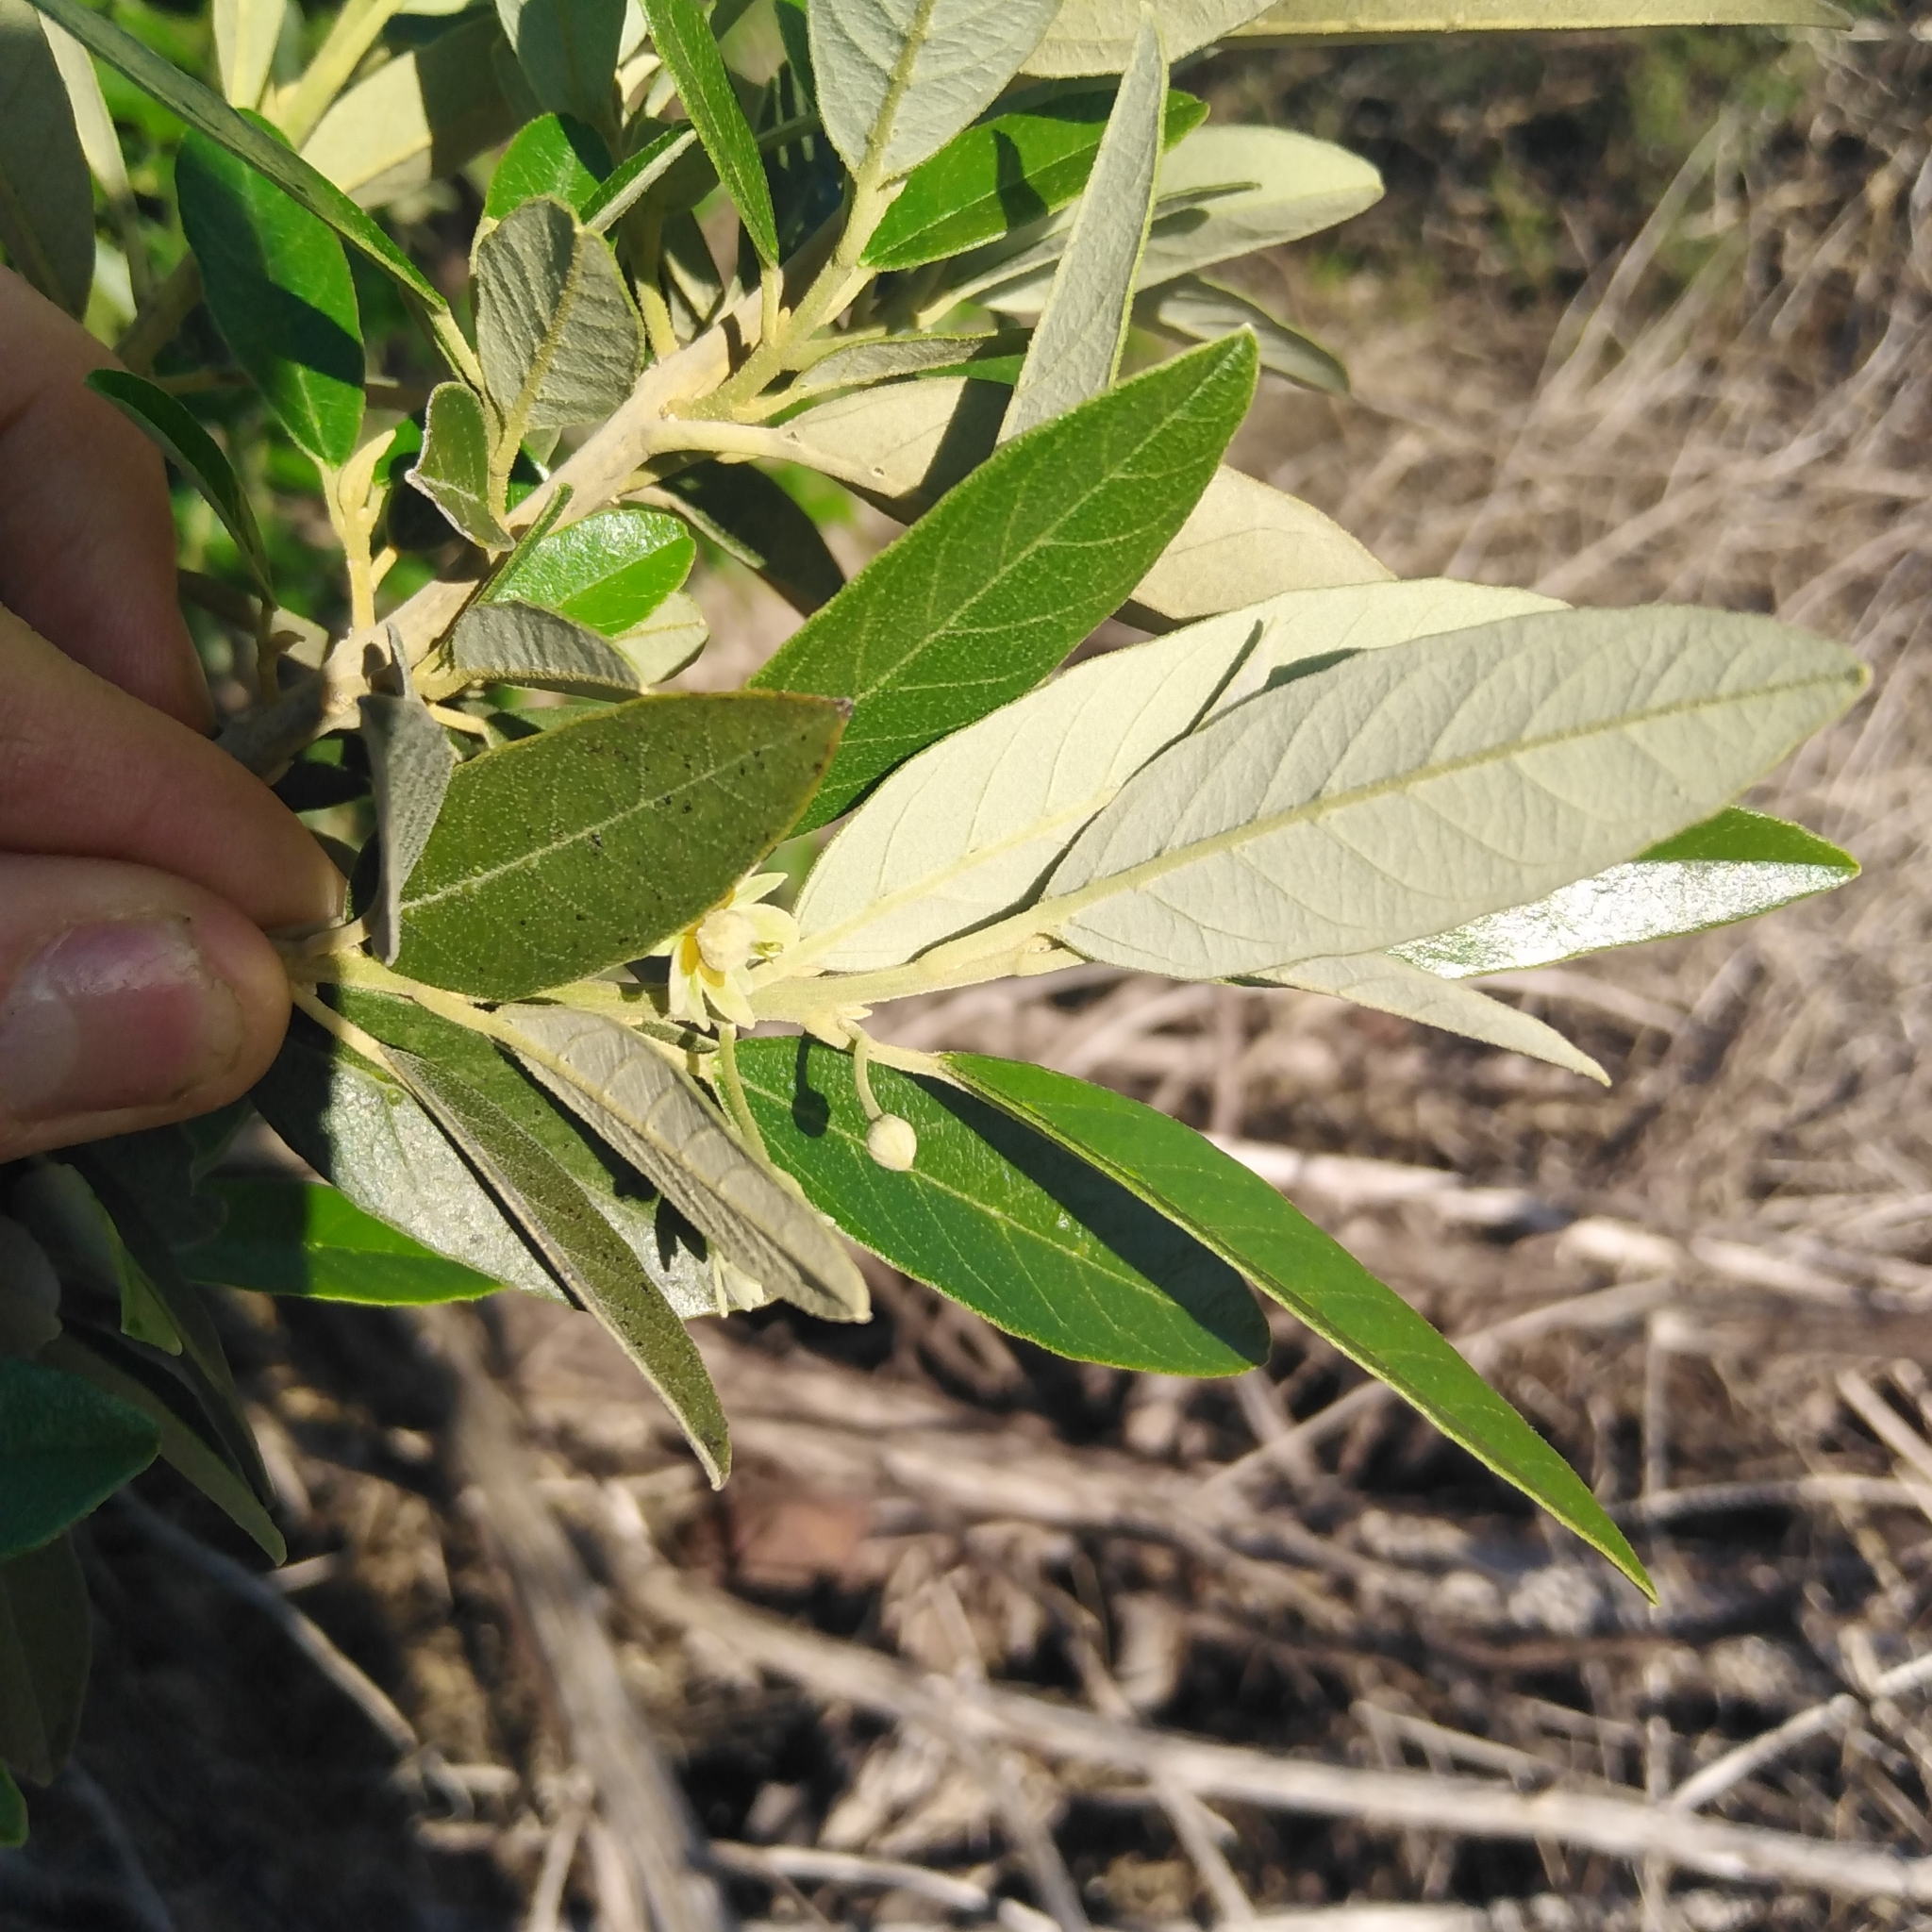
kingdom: Plantae
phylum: Tracheophyta
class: Magnoliopsida
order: Malpighiales
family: Achariaceae
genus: Kiggelaria
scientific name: Kiggelaria africana
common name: Wild peach
